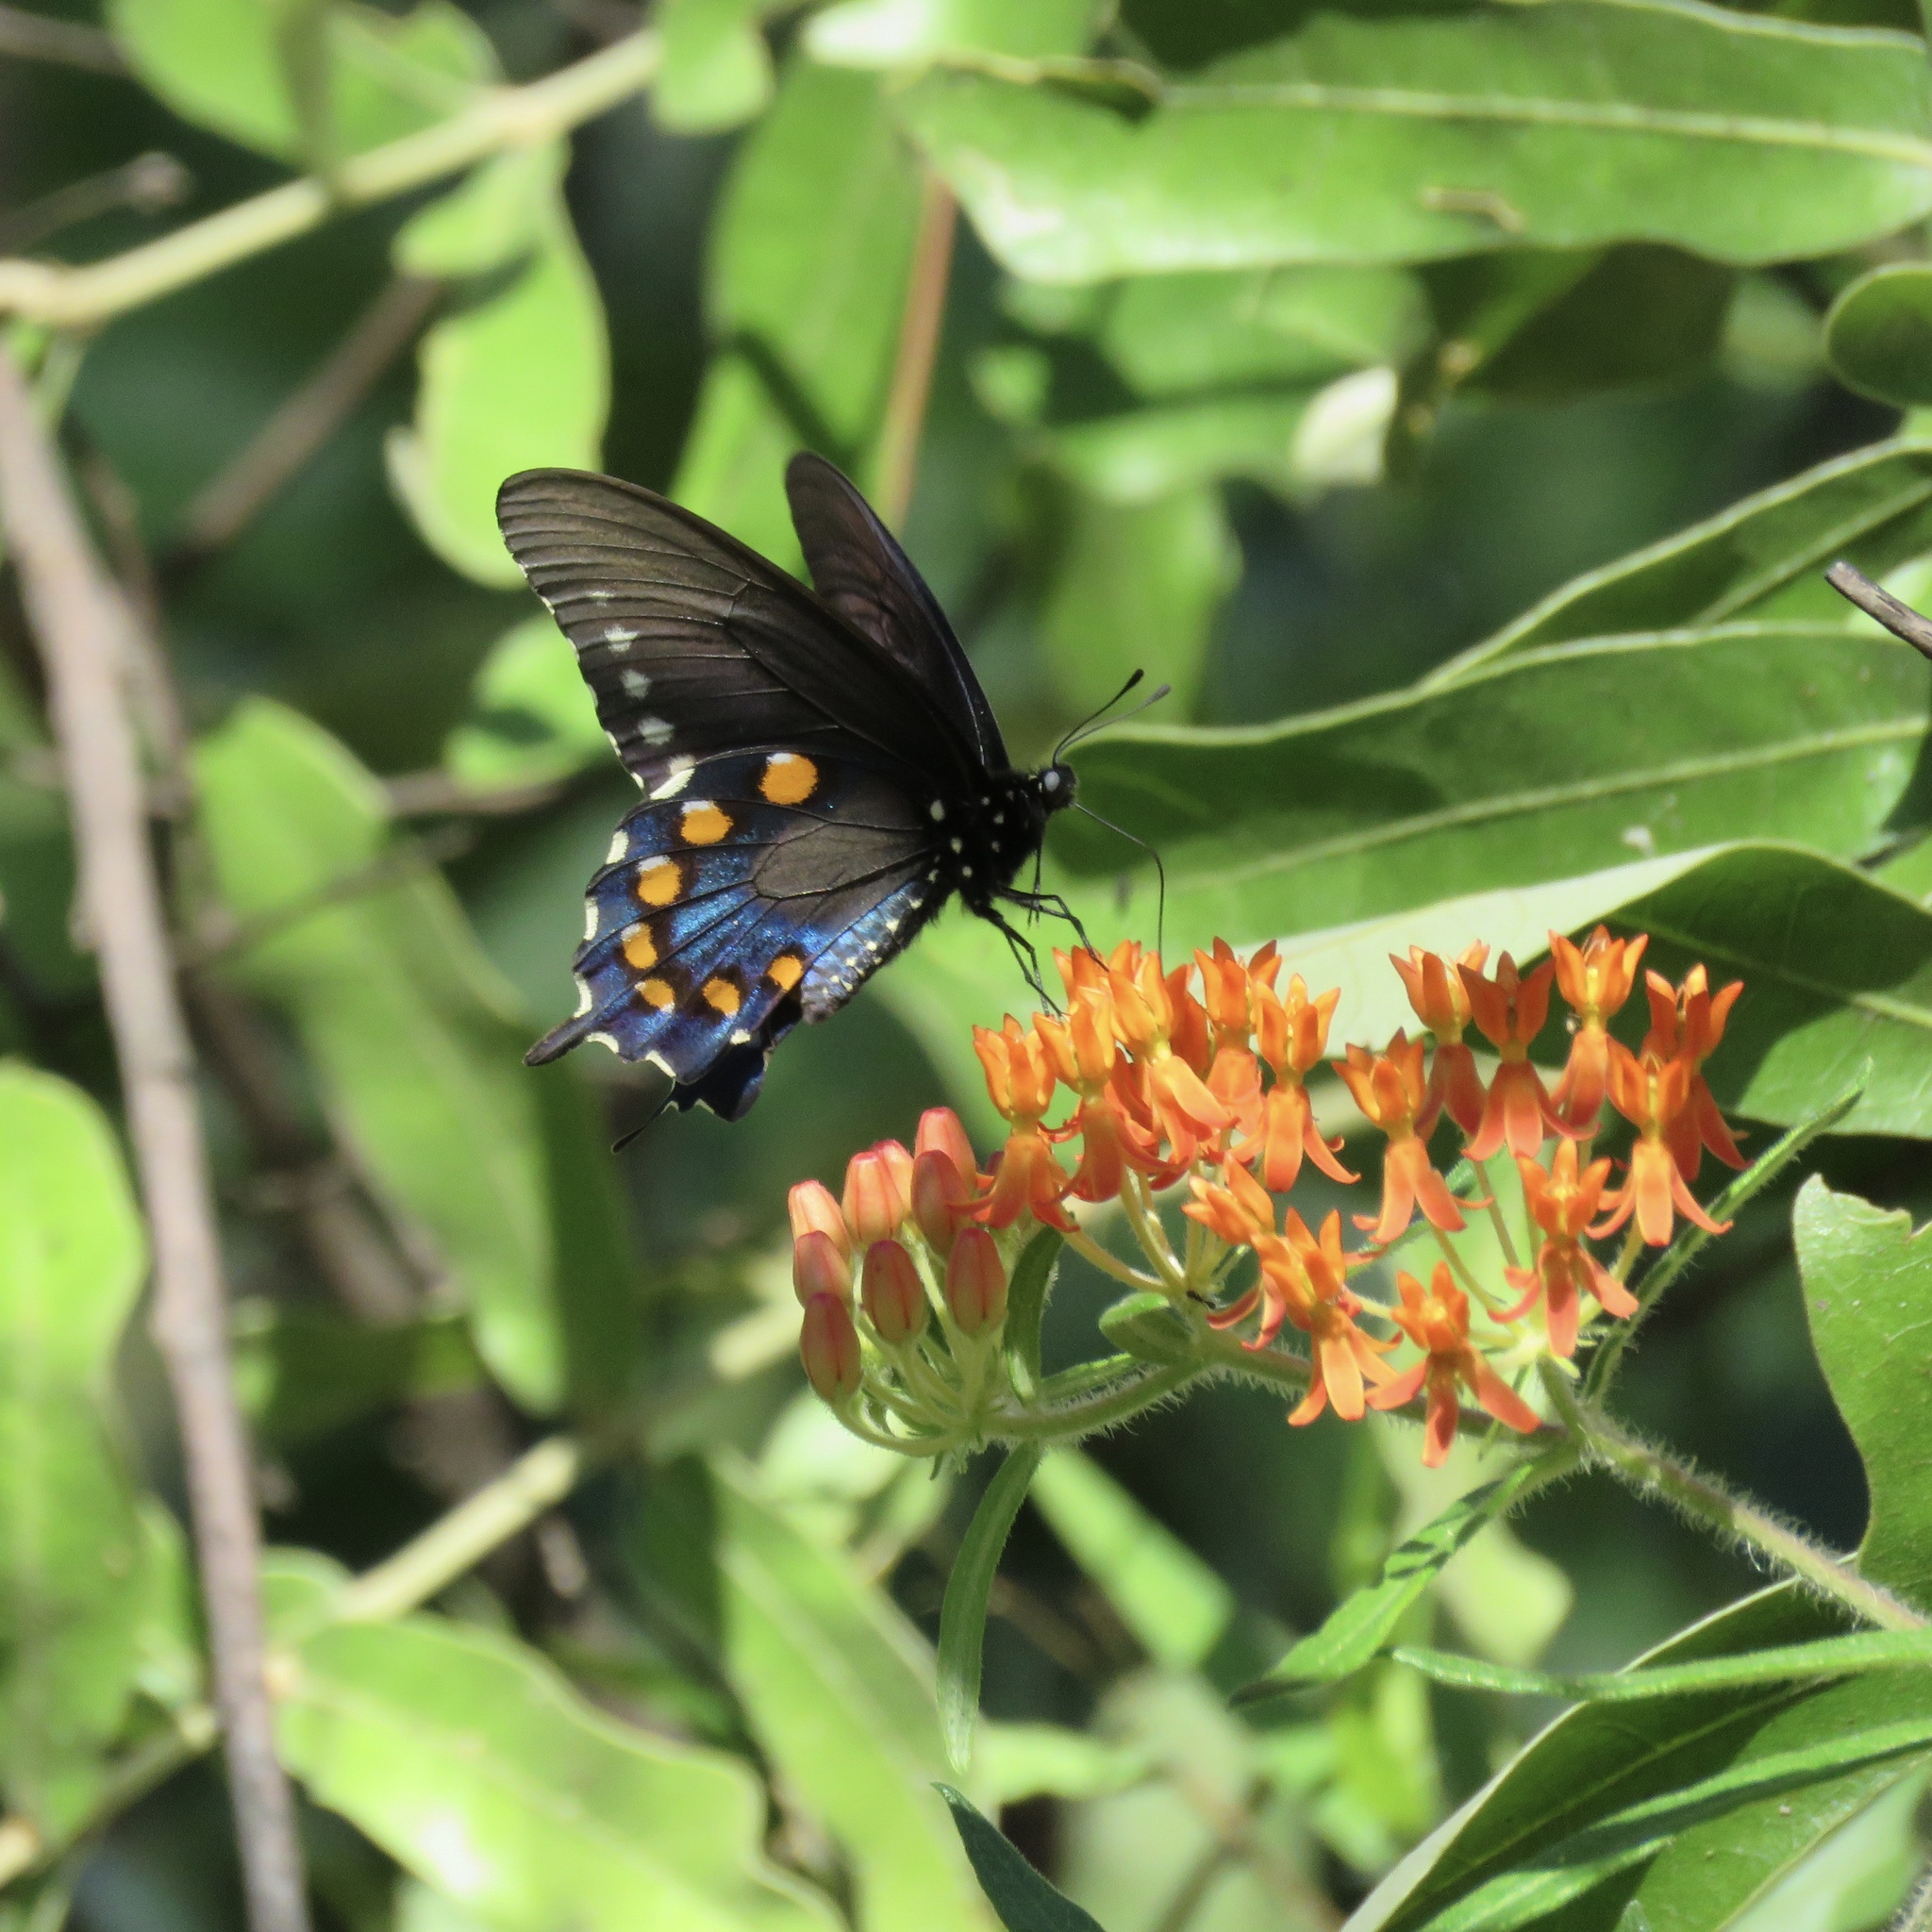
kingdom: Animalia
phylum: Arthropoda
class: Insecta
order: Lepidoptera
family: Papilionidae
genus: Battus
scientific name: Battus philenor
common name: Pipevine swallowtail
